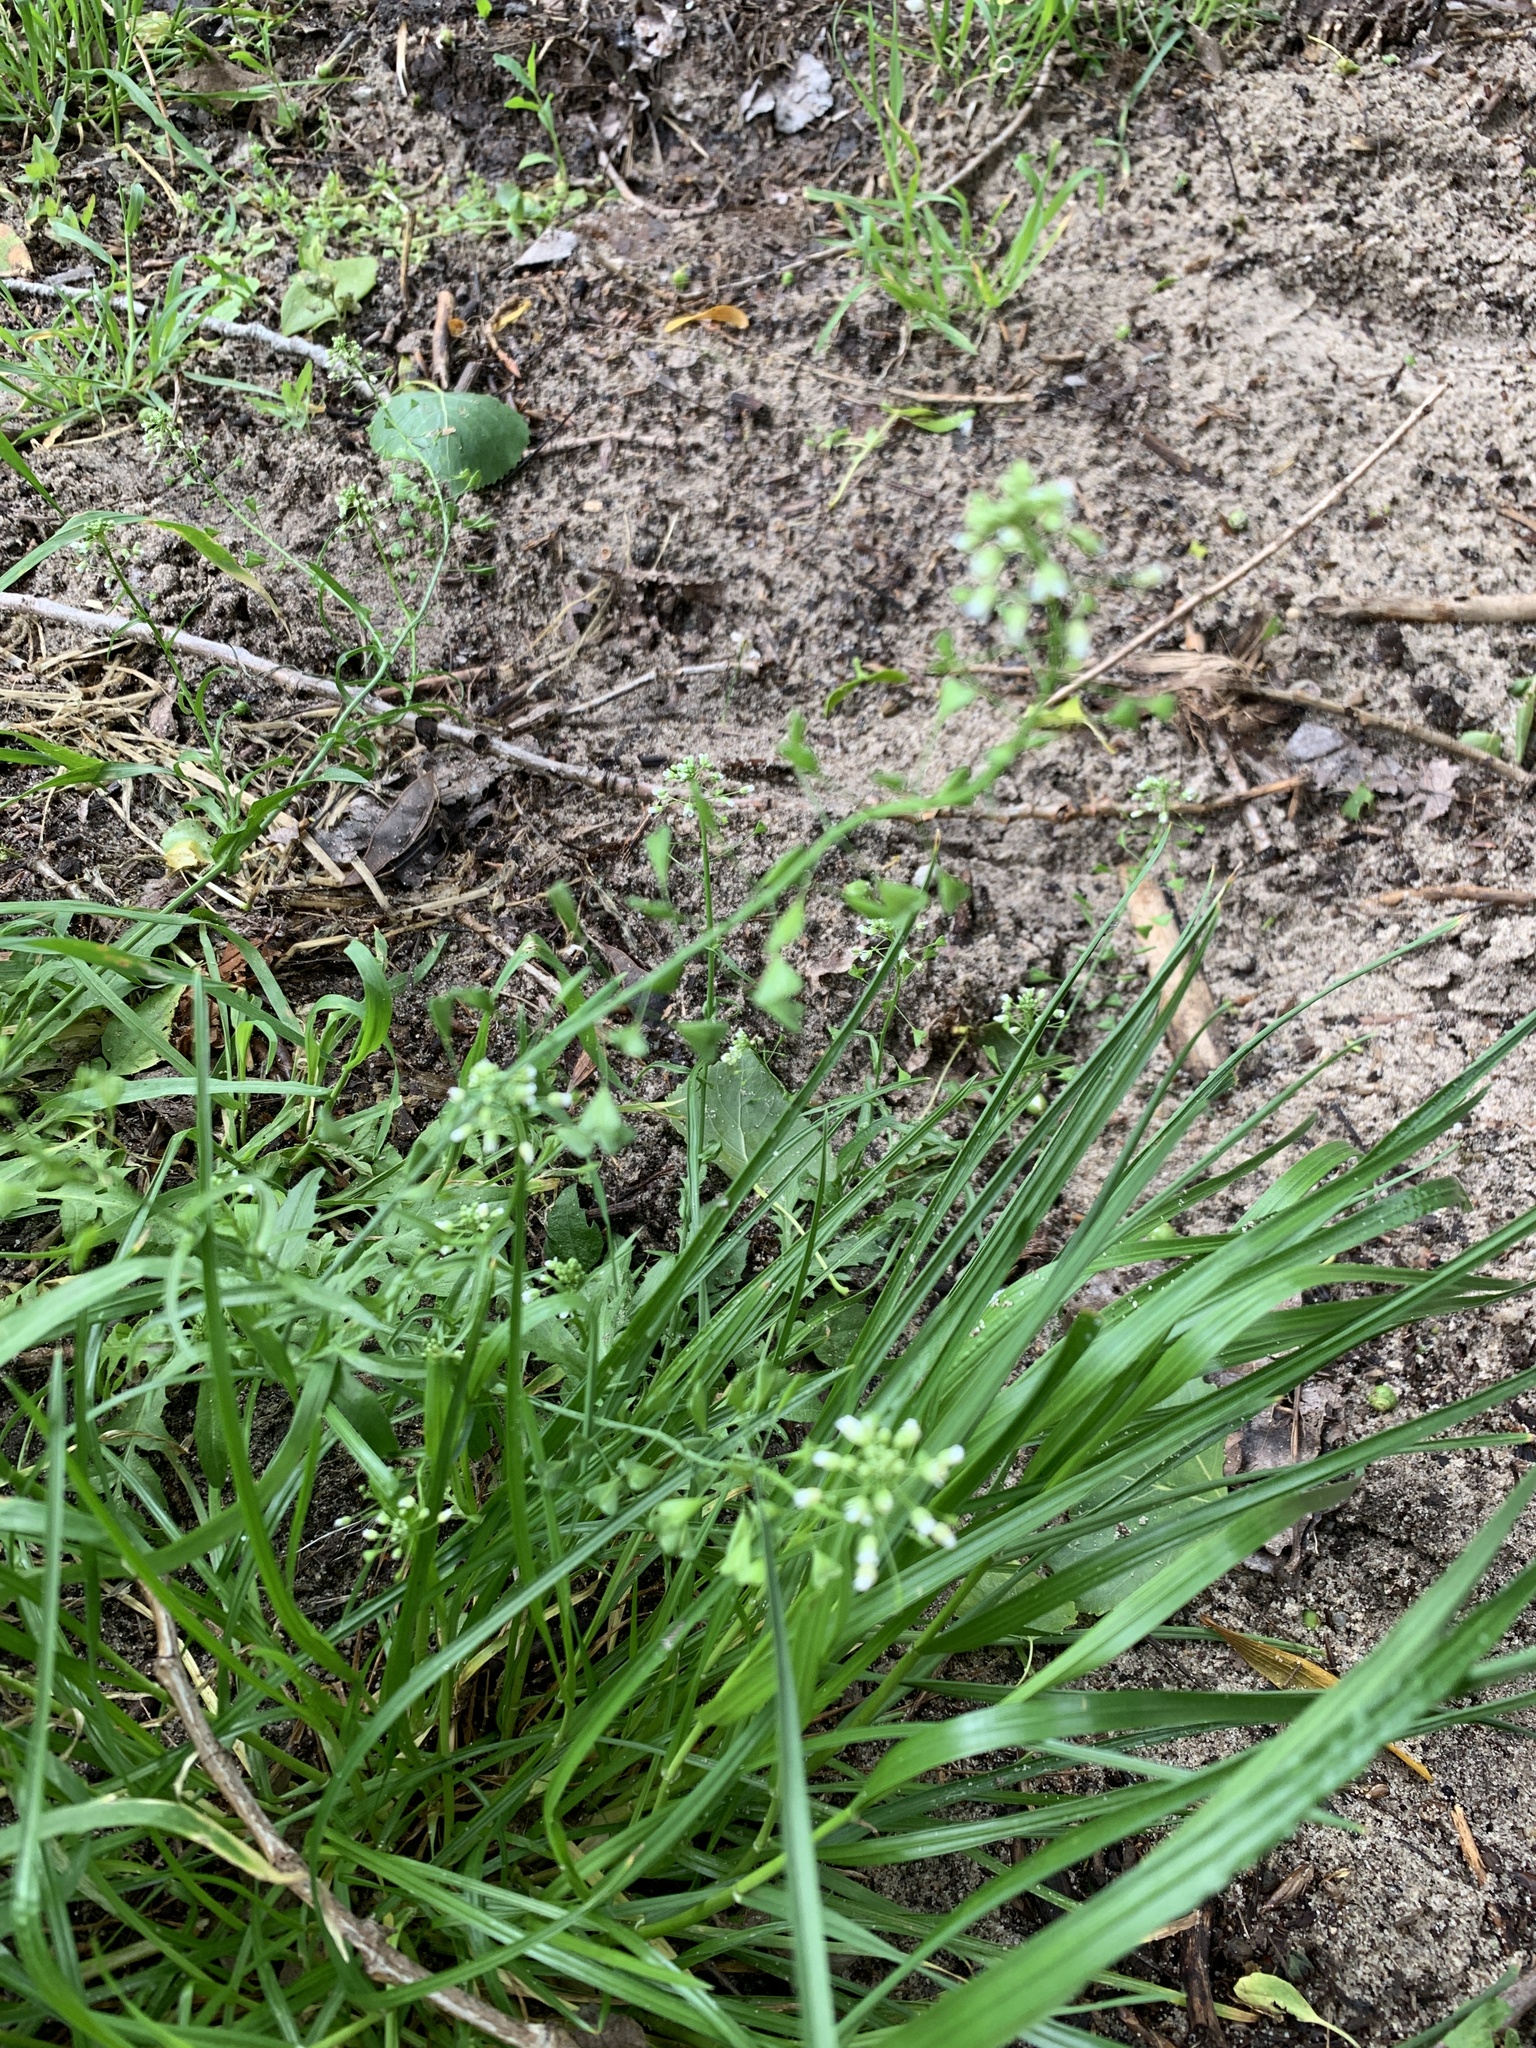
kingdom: Plantae
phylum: Tracheophyta
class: Magnoliopsida
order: Brassicales
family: Brassicaceae
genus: Capsella
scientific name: Capsella bursa-pastoris
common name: Shepherd's purse
